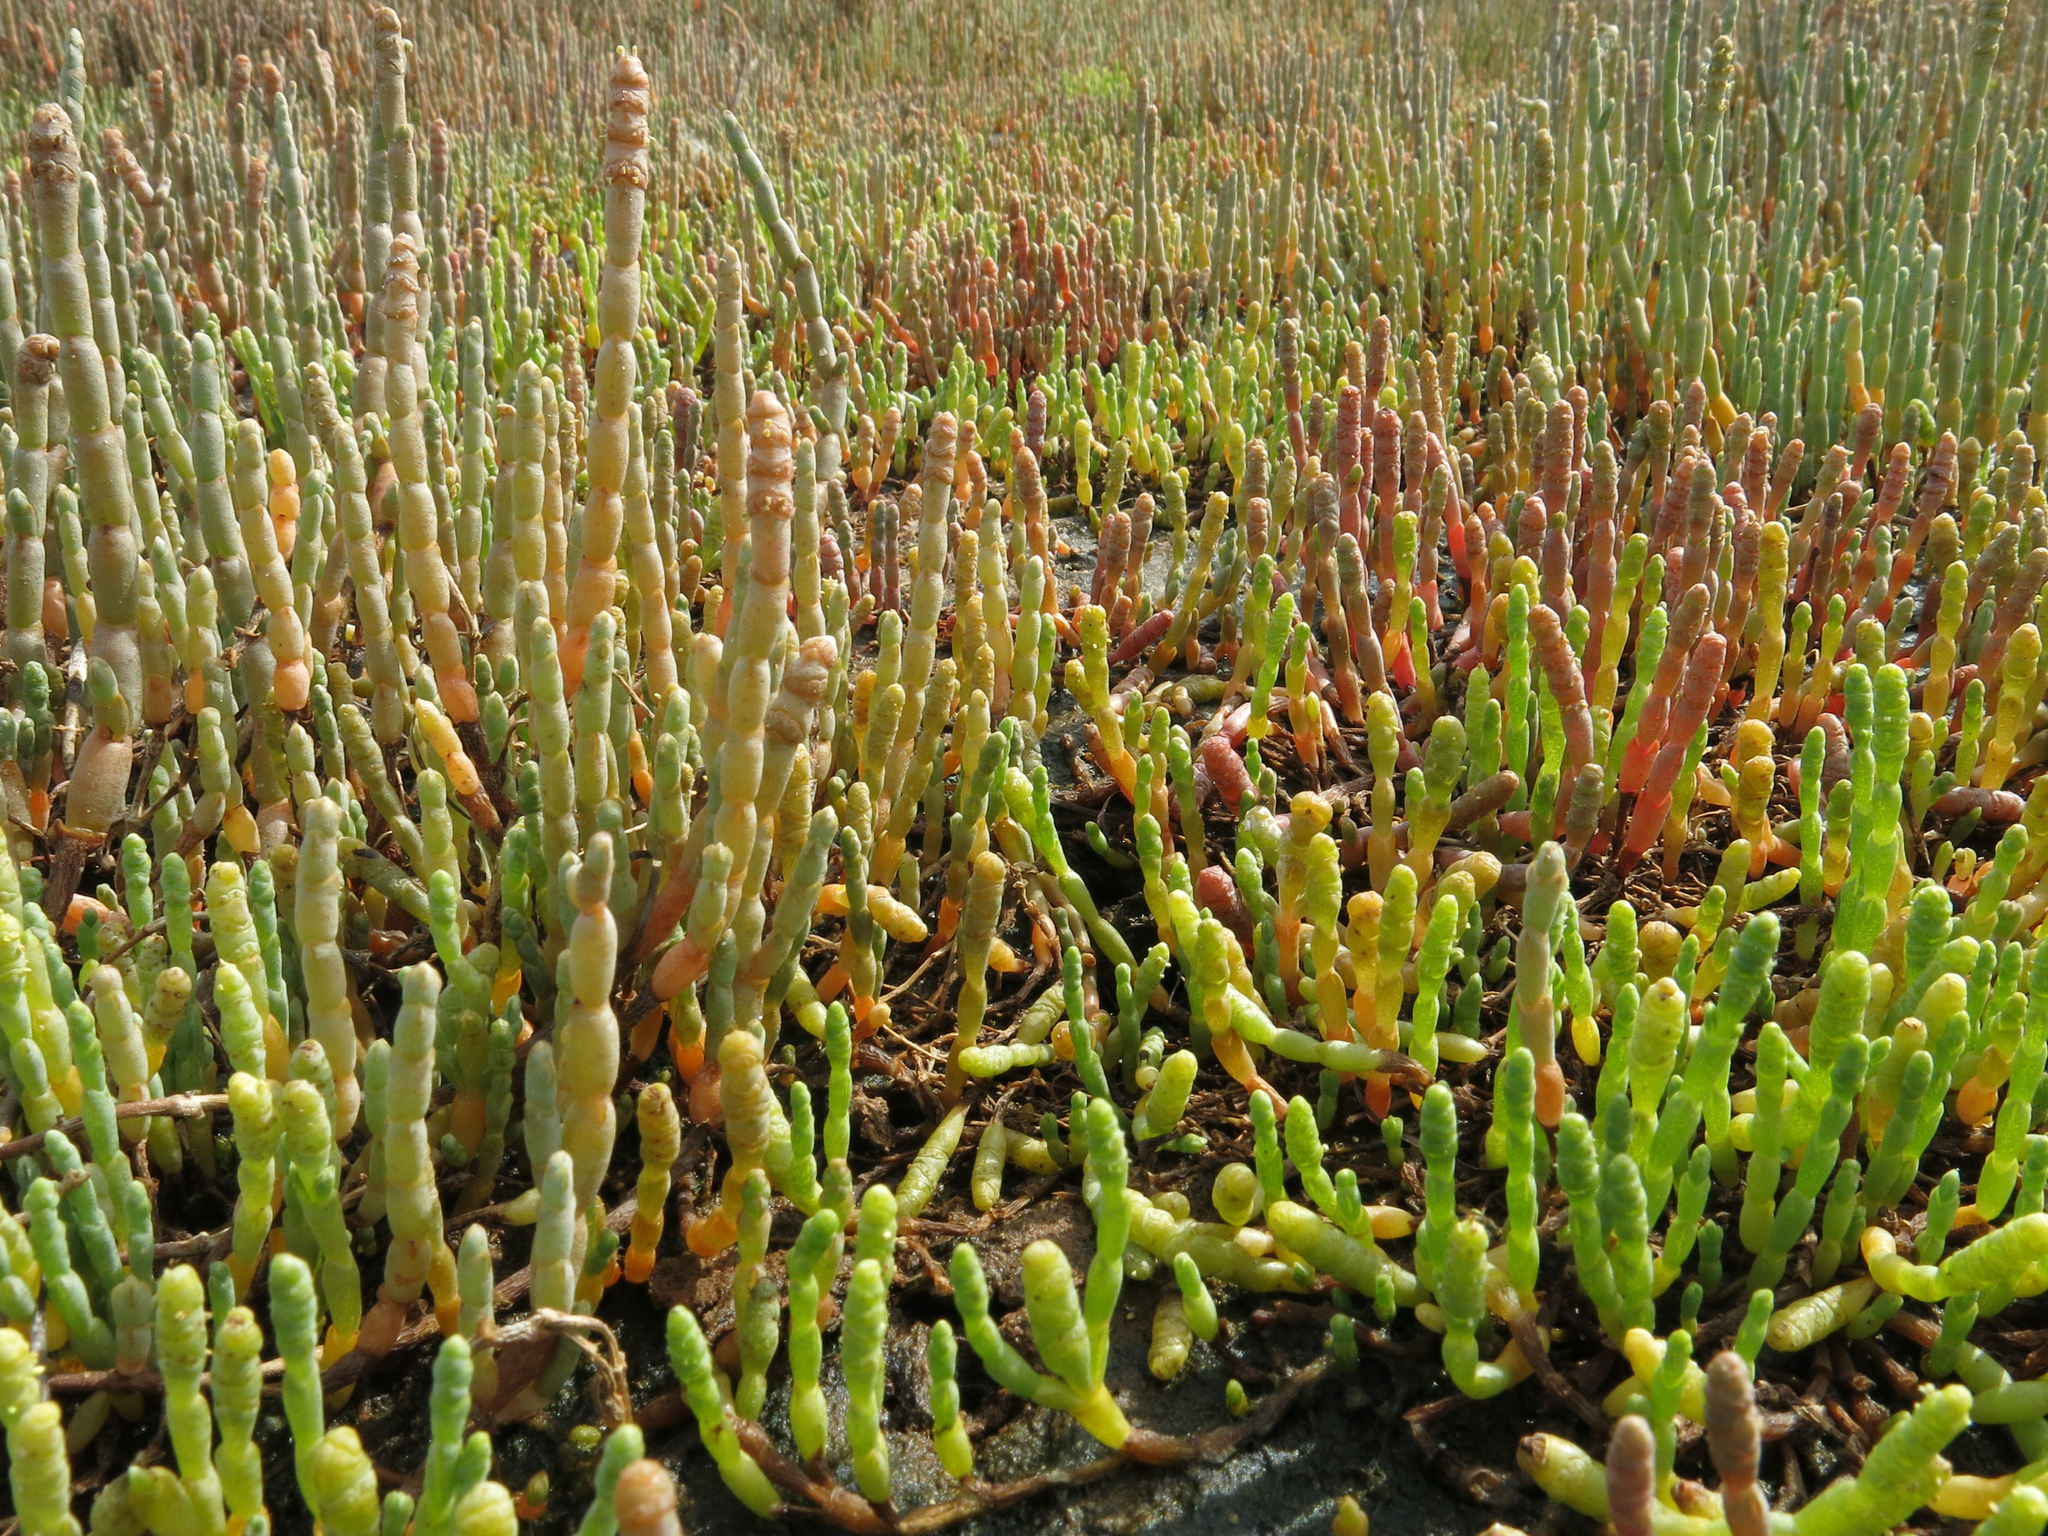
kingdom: Plantae
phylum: Tracheophyta
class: Magnoliopsida
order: Caryophyllales
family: Amaranthaceae
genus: Salicornia
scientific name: Salicornia quinqueflora
